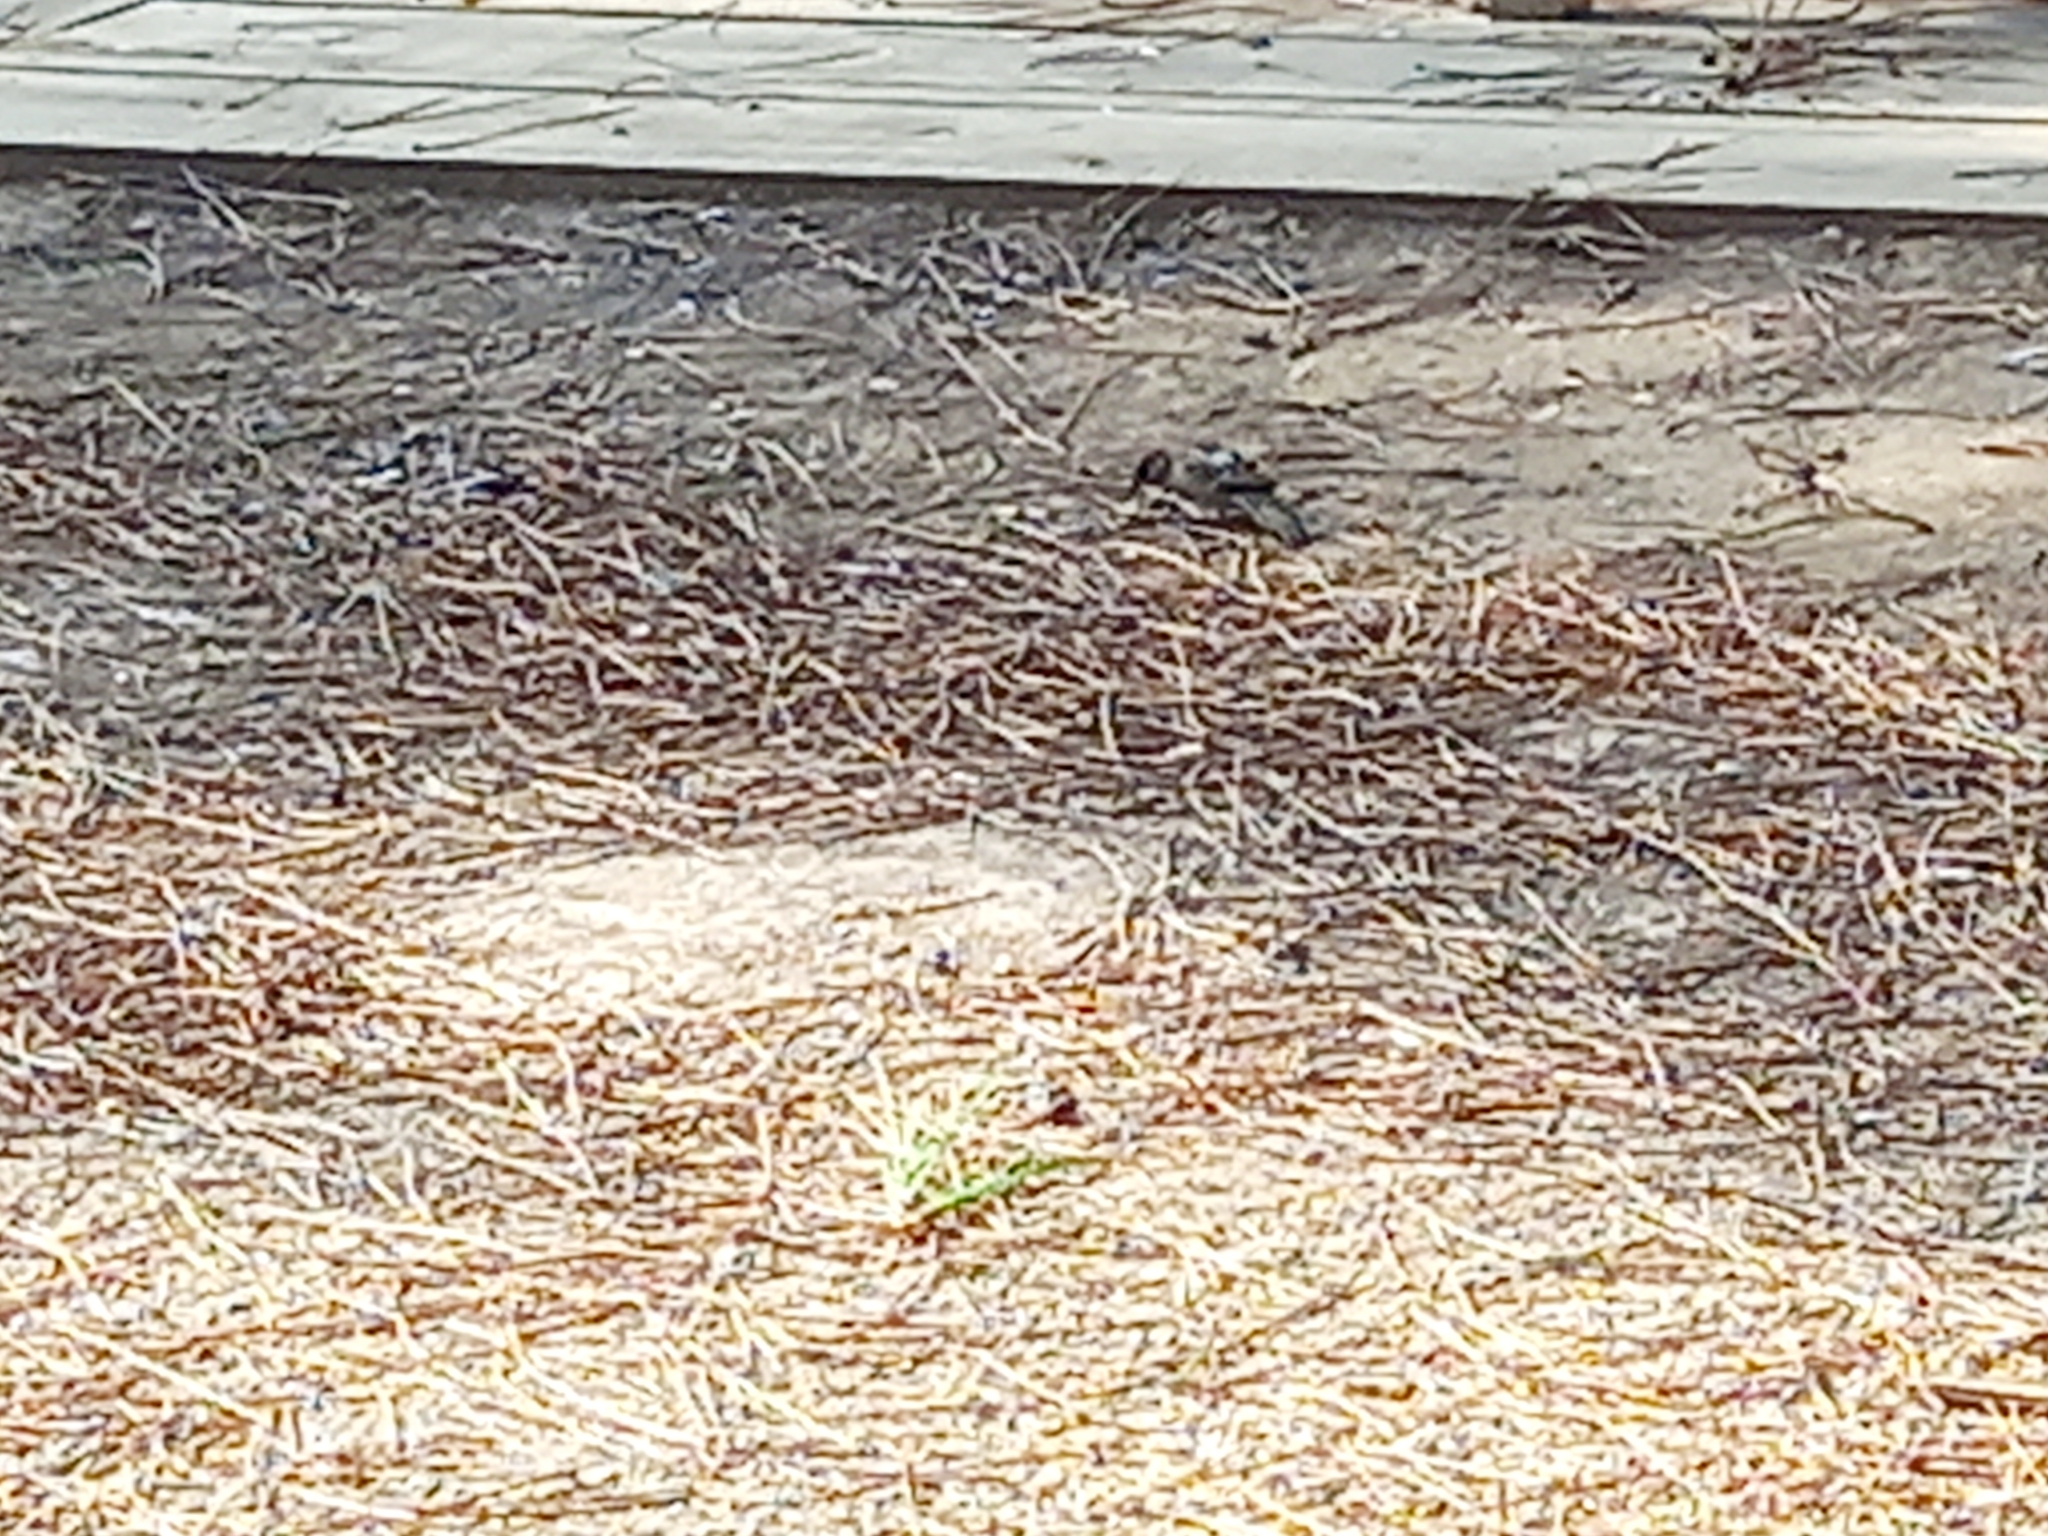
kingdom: Animalia
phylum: Chordata
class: Aves
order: Passeriformes
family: Passeridae
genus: Passer
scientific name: Passer domesticus
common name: House sparrow
